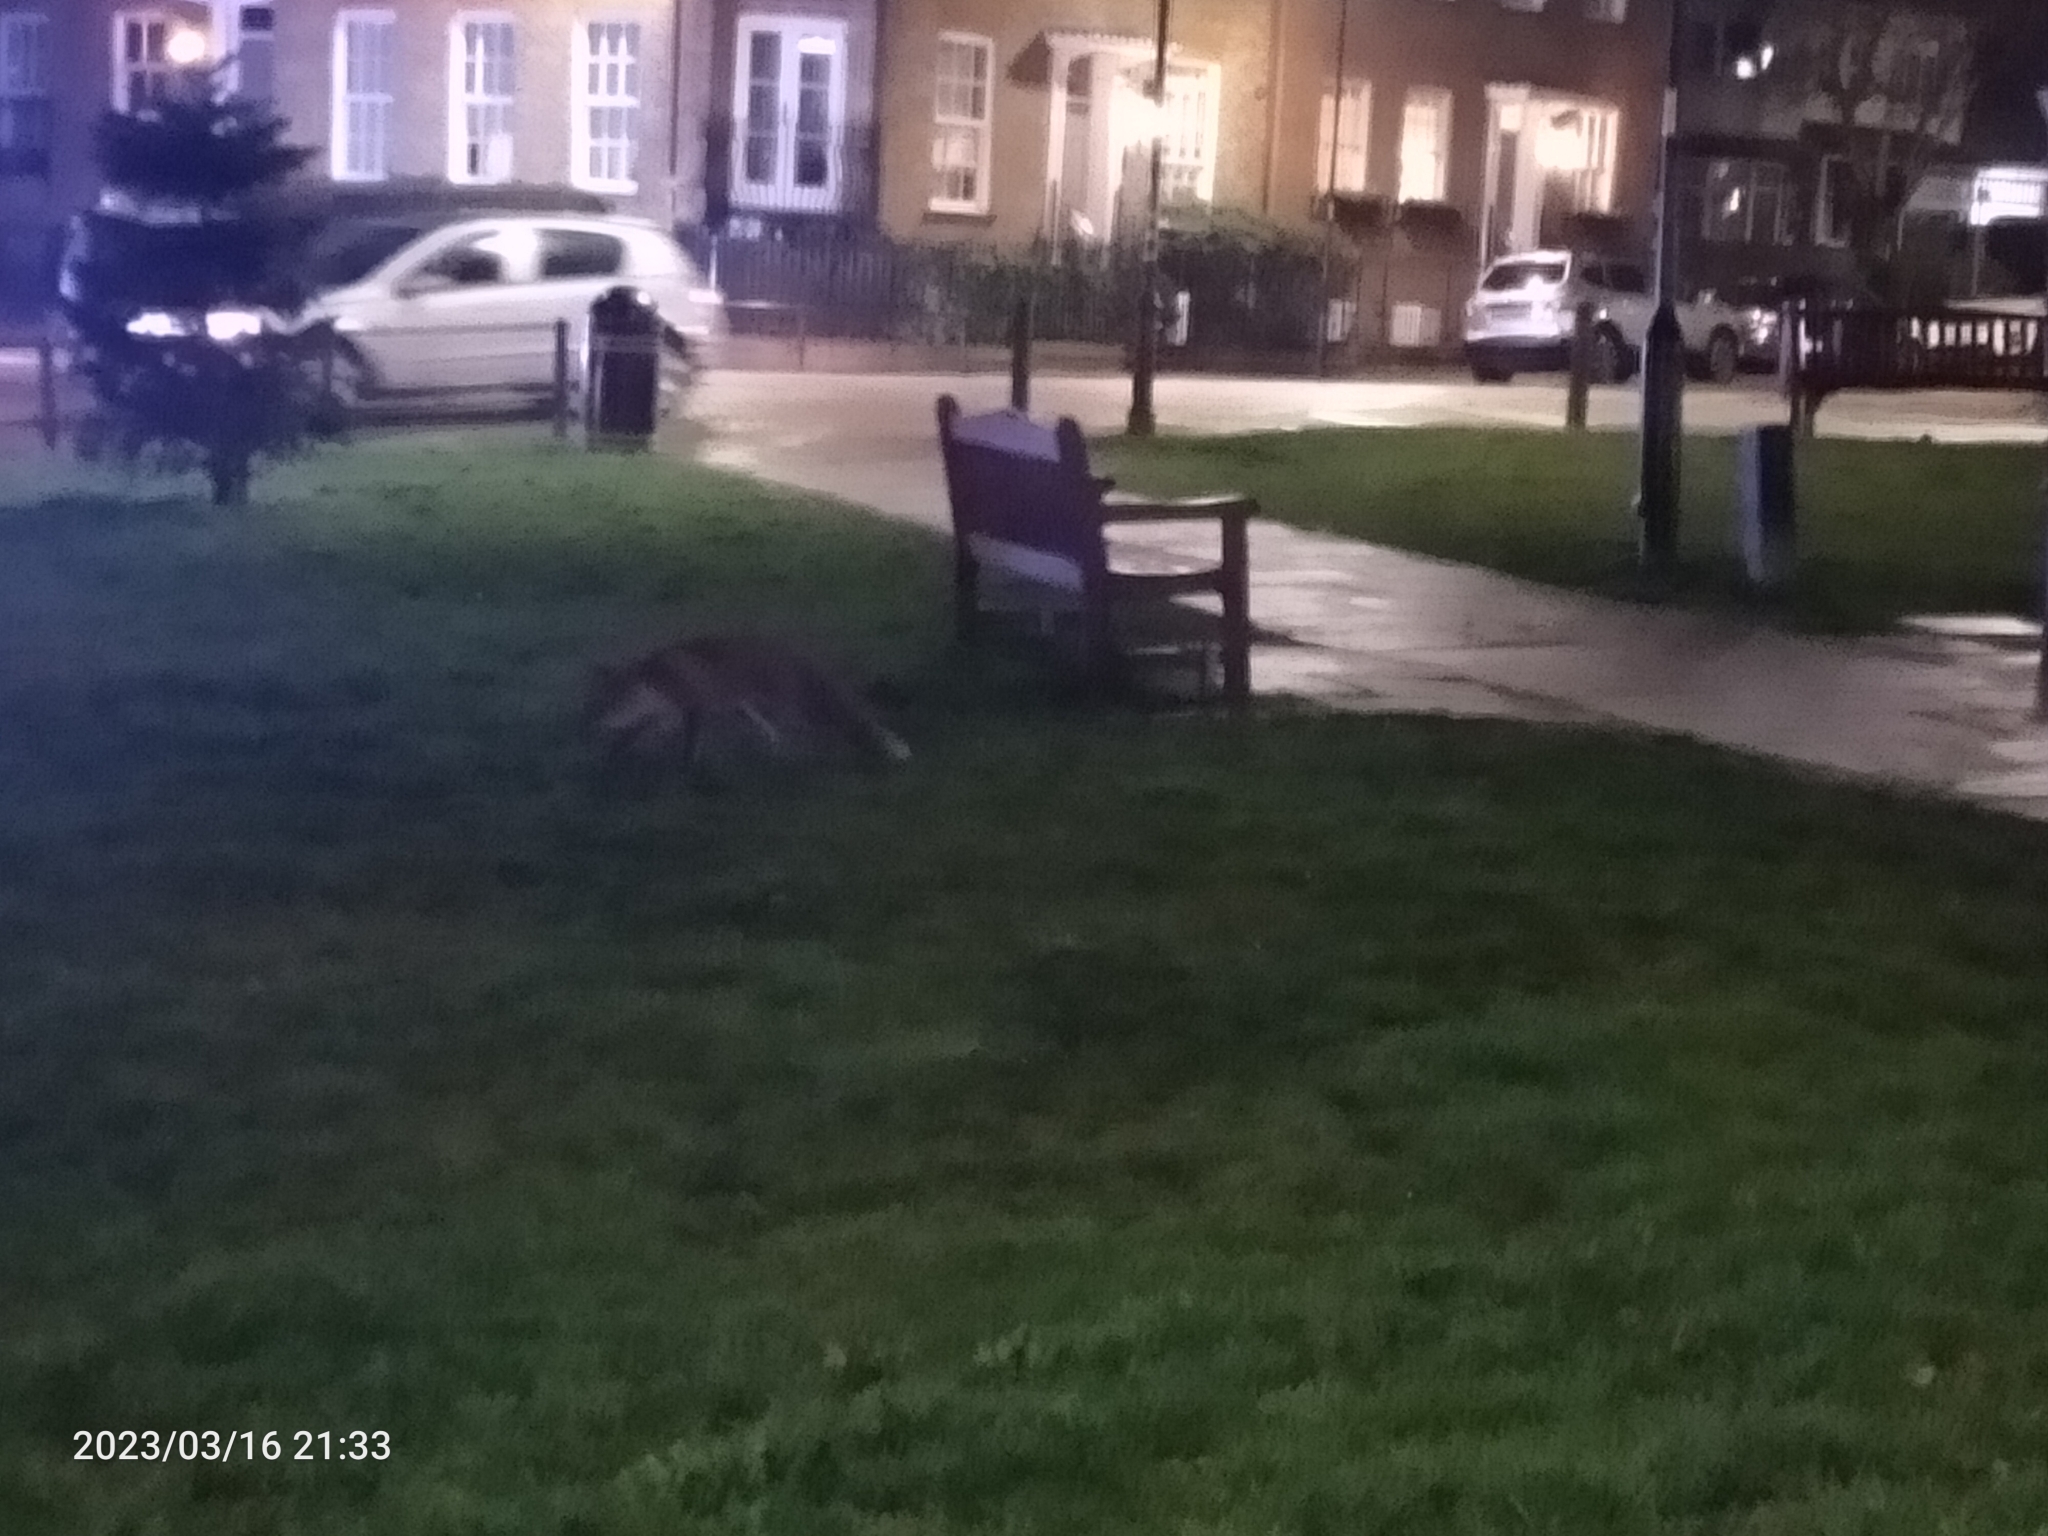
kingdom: Animalia
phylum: Chordata
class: Mammalia
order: Carnivora
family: Canidae
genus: Vulpes
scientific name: Vulpes vulpes
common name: Red fox
